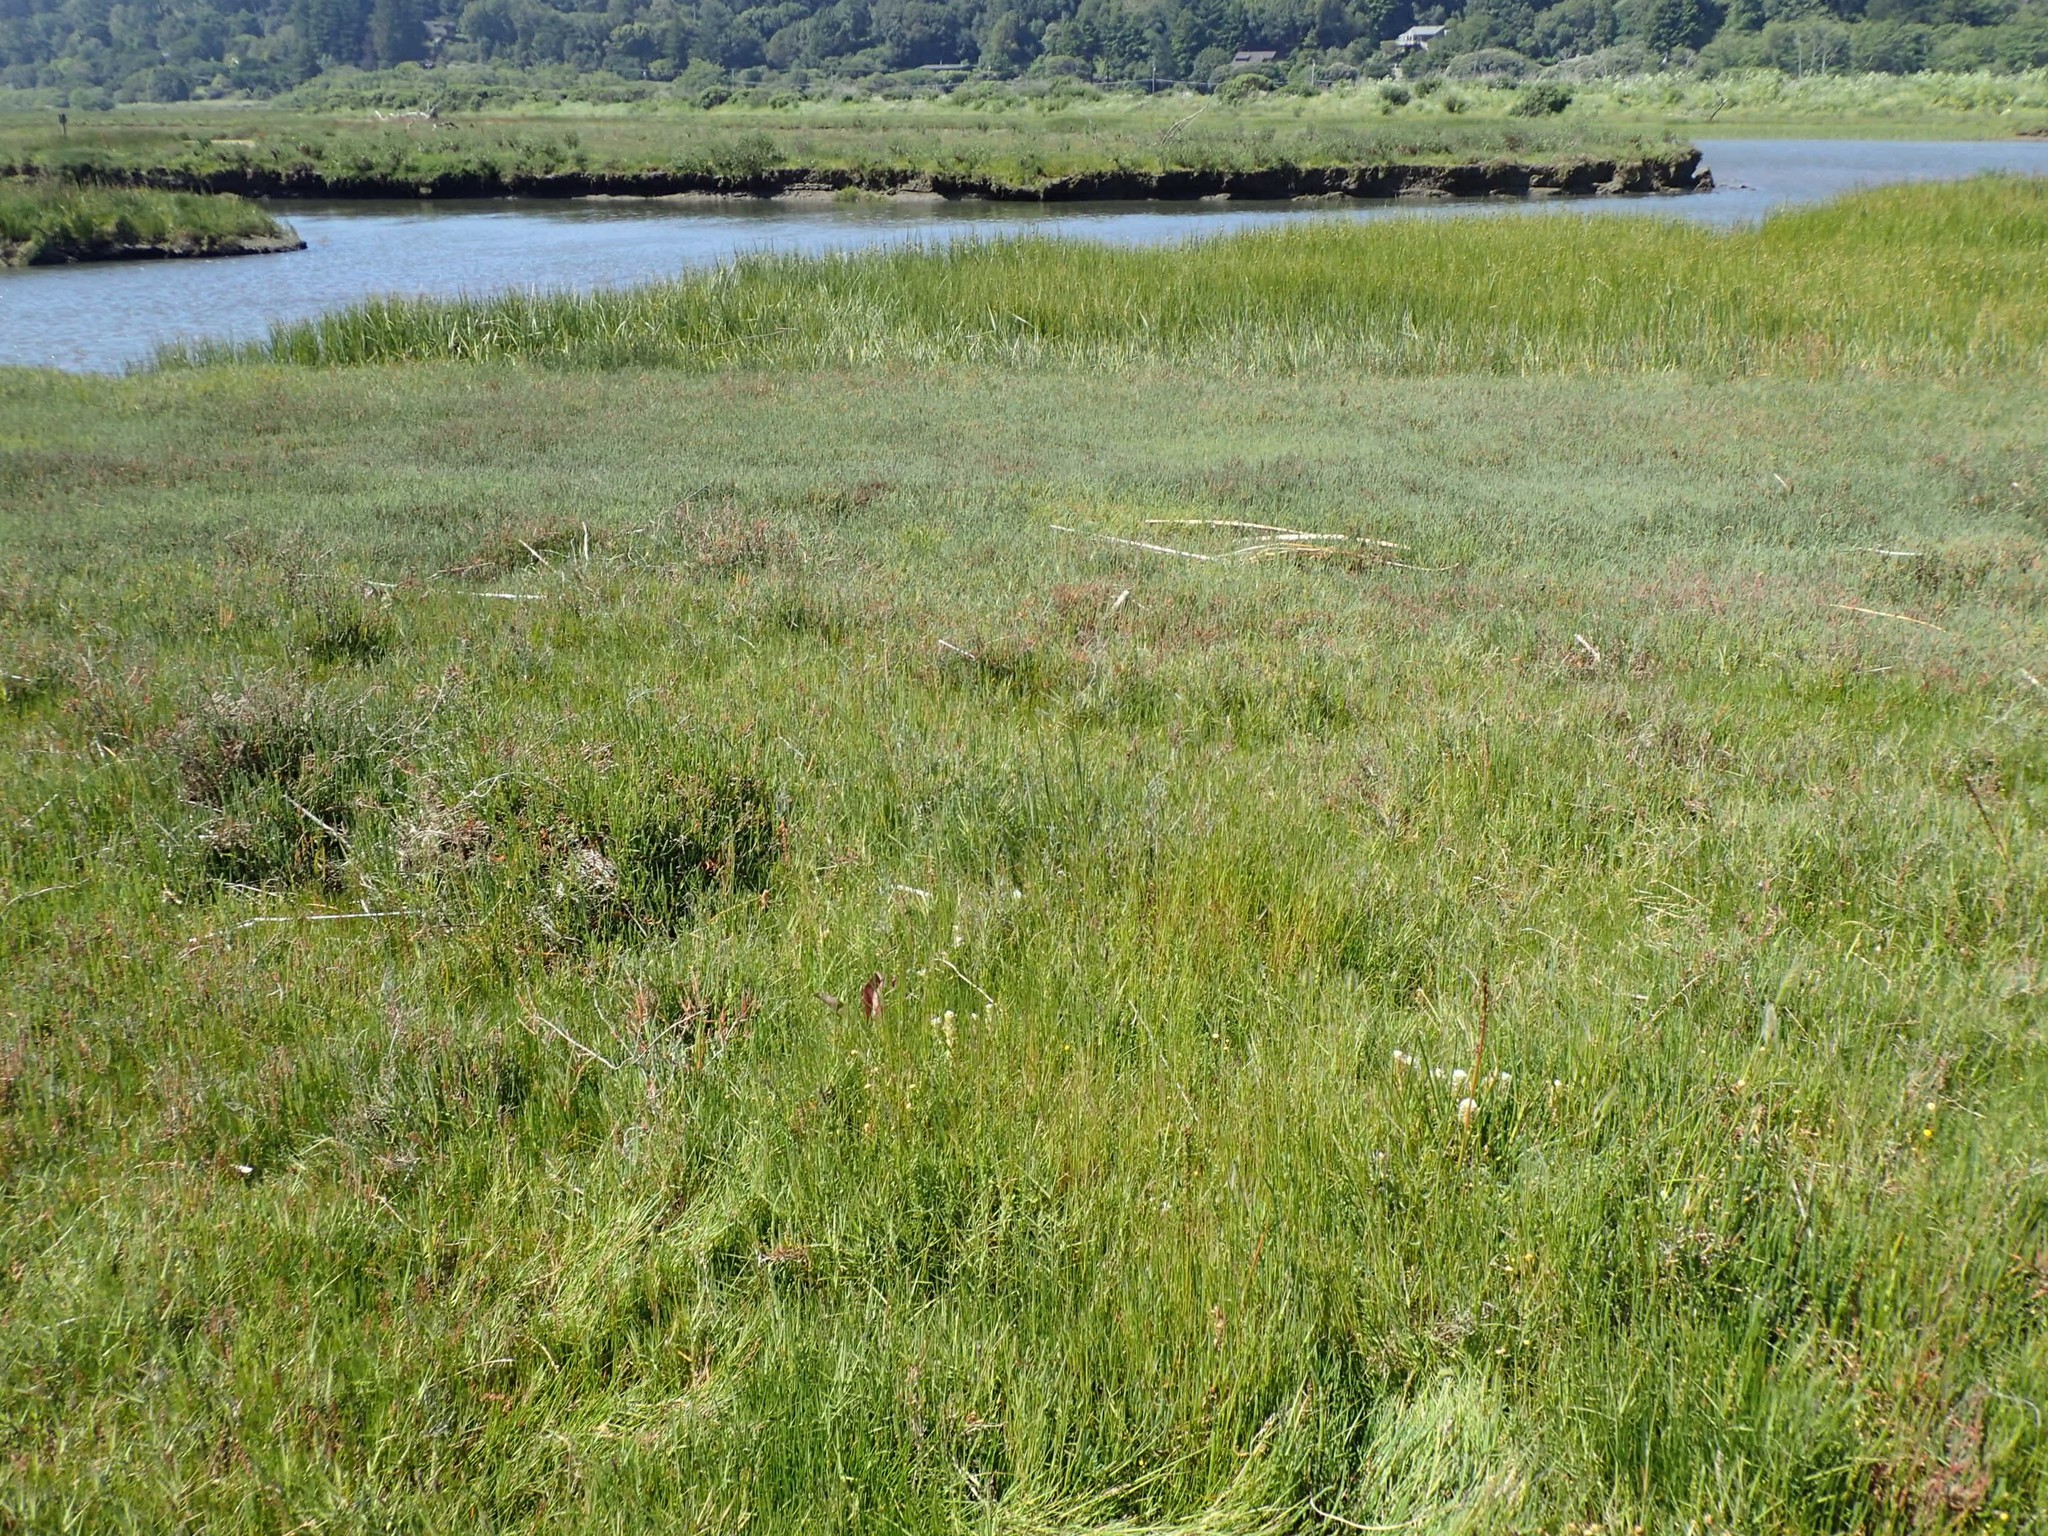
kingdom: Plantae
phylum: Tracheophyta
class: Magnoliopsida
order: Lamiales
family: Orobanchaceae
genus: Castilleja
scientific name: Castilleja ambigua
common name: Johnny-nip
